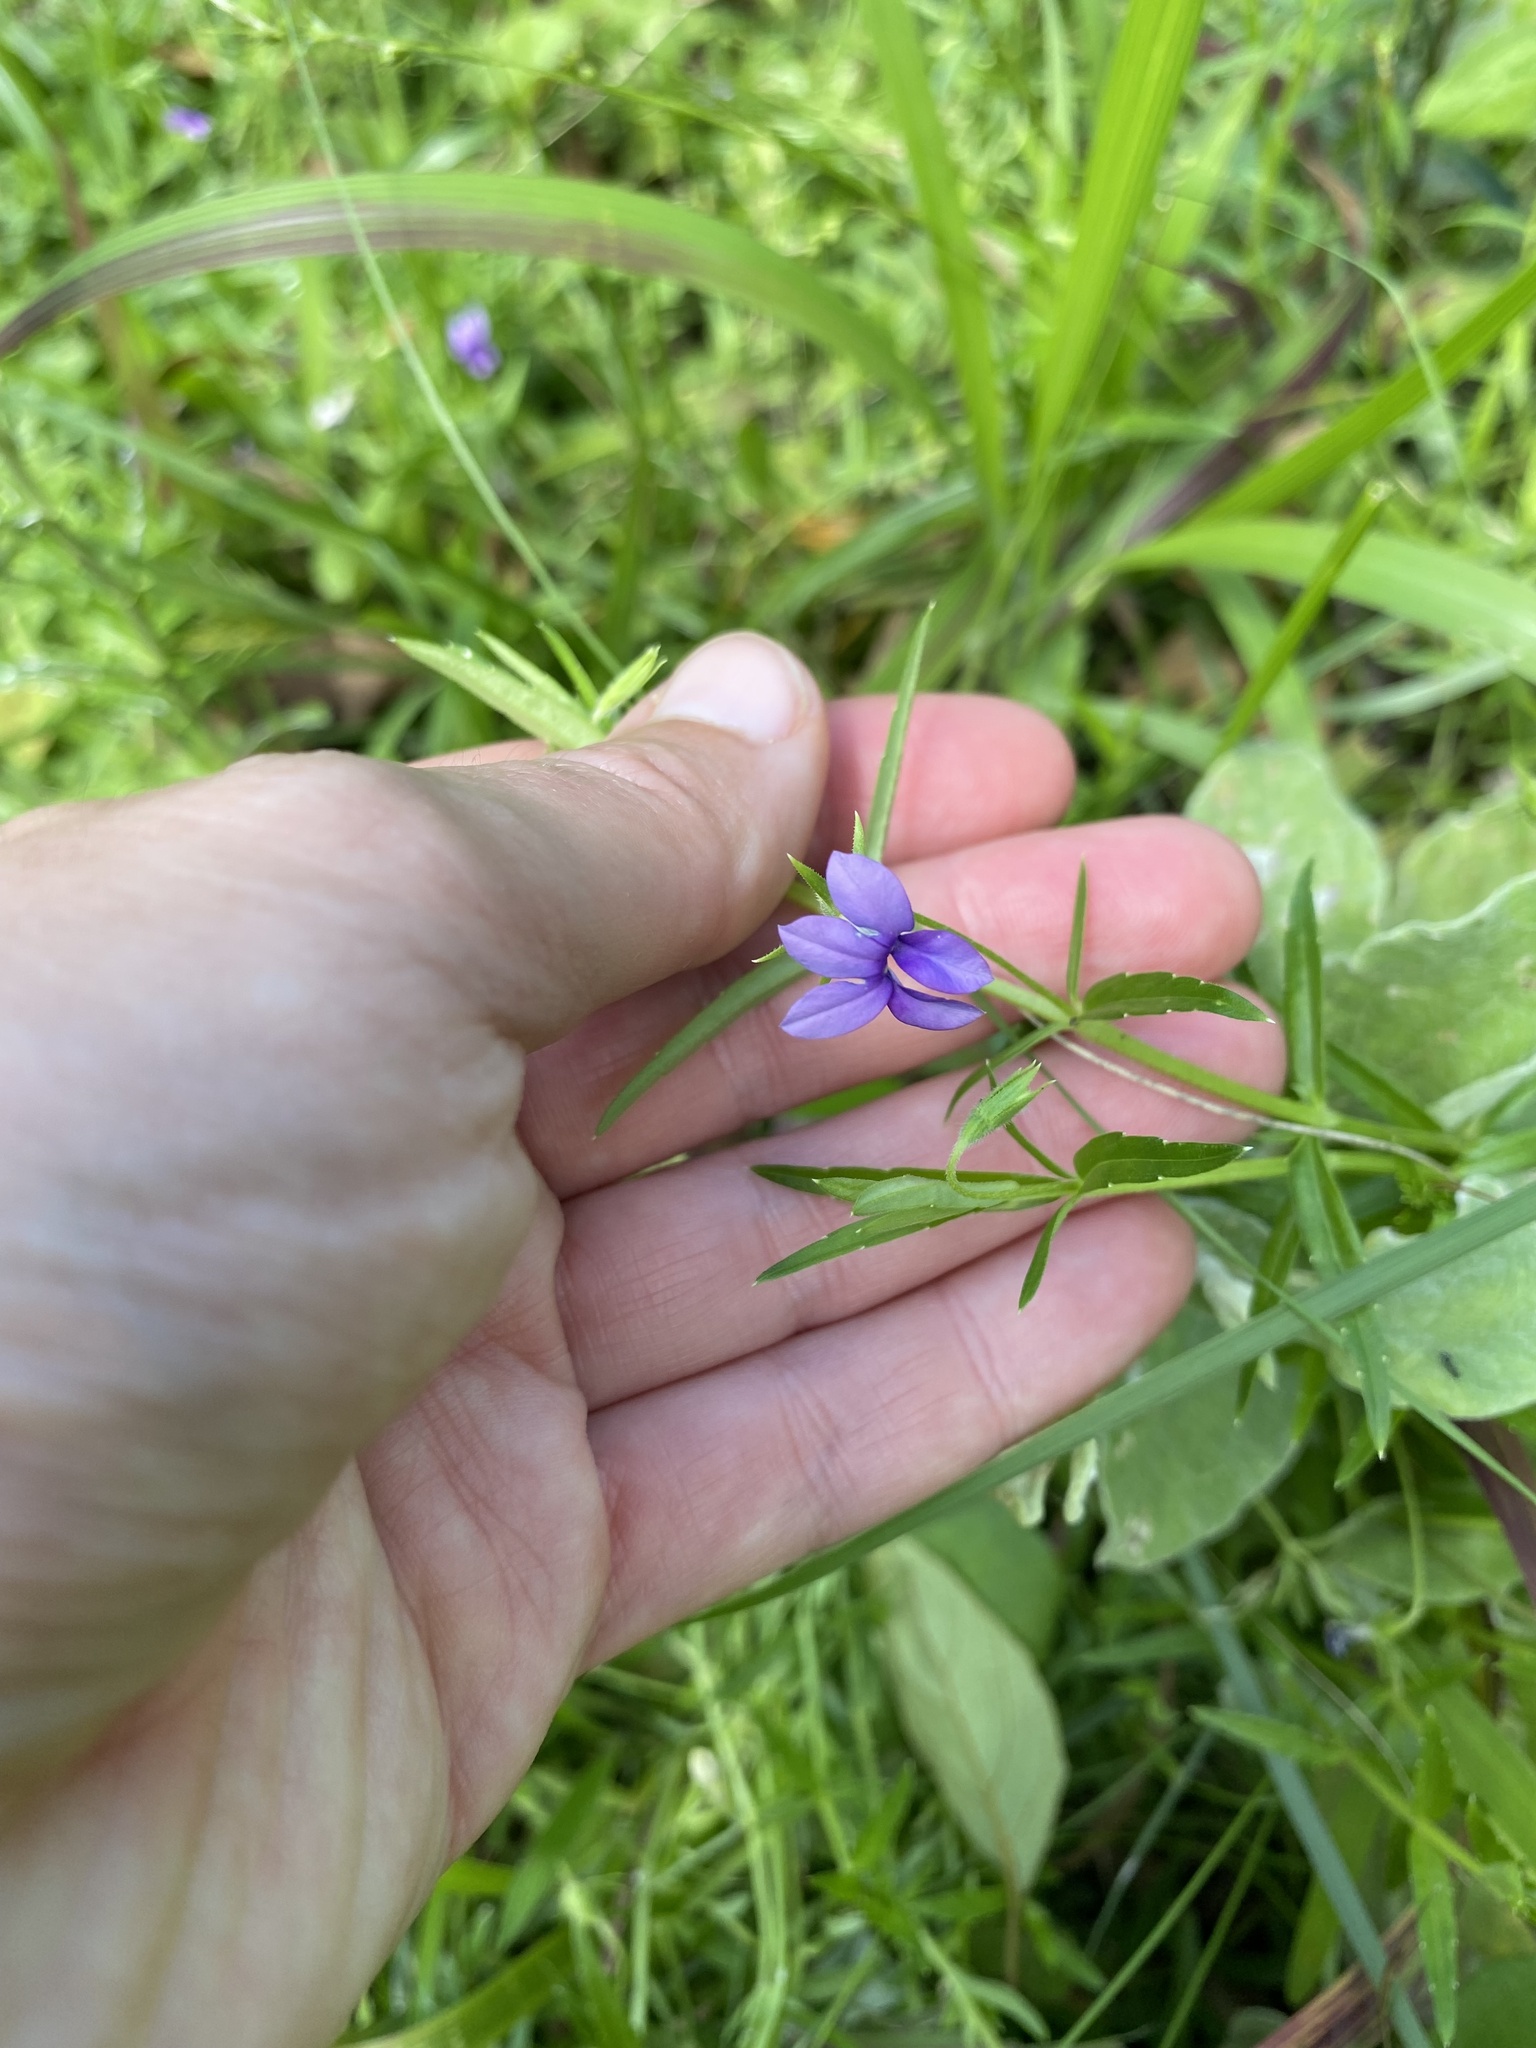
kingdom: Plantae
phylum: Tracheophyta
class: Magnoliopsida
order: Asterales
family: Campanulaceae
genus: Monopsis
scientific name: Monopsis stellarioides
